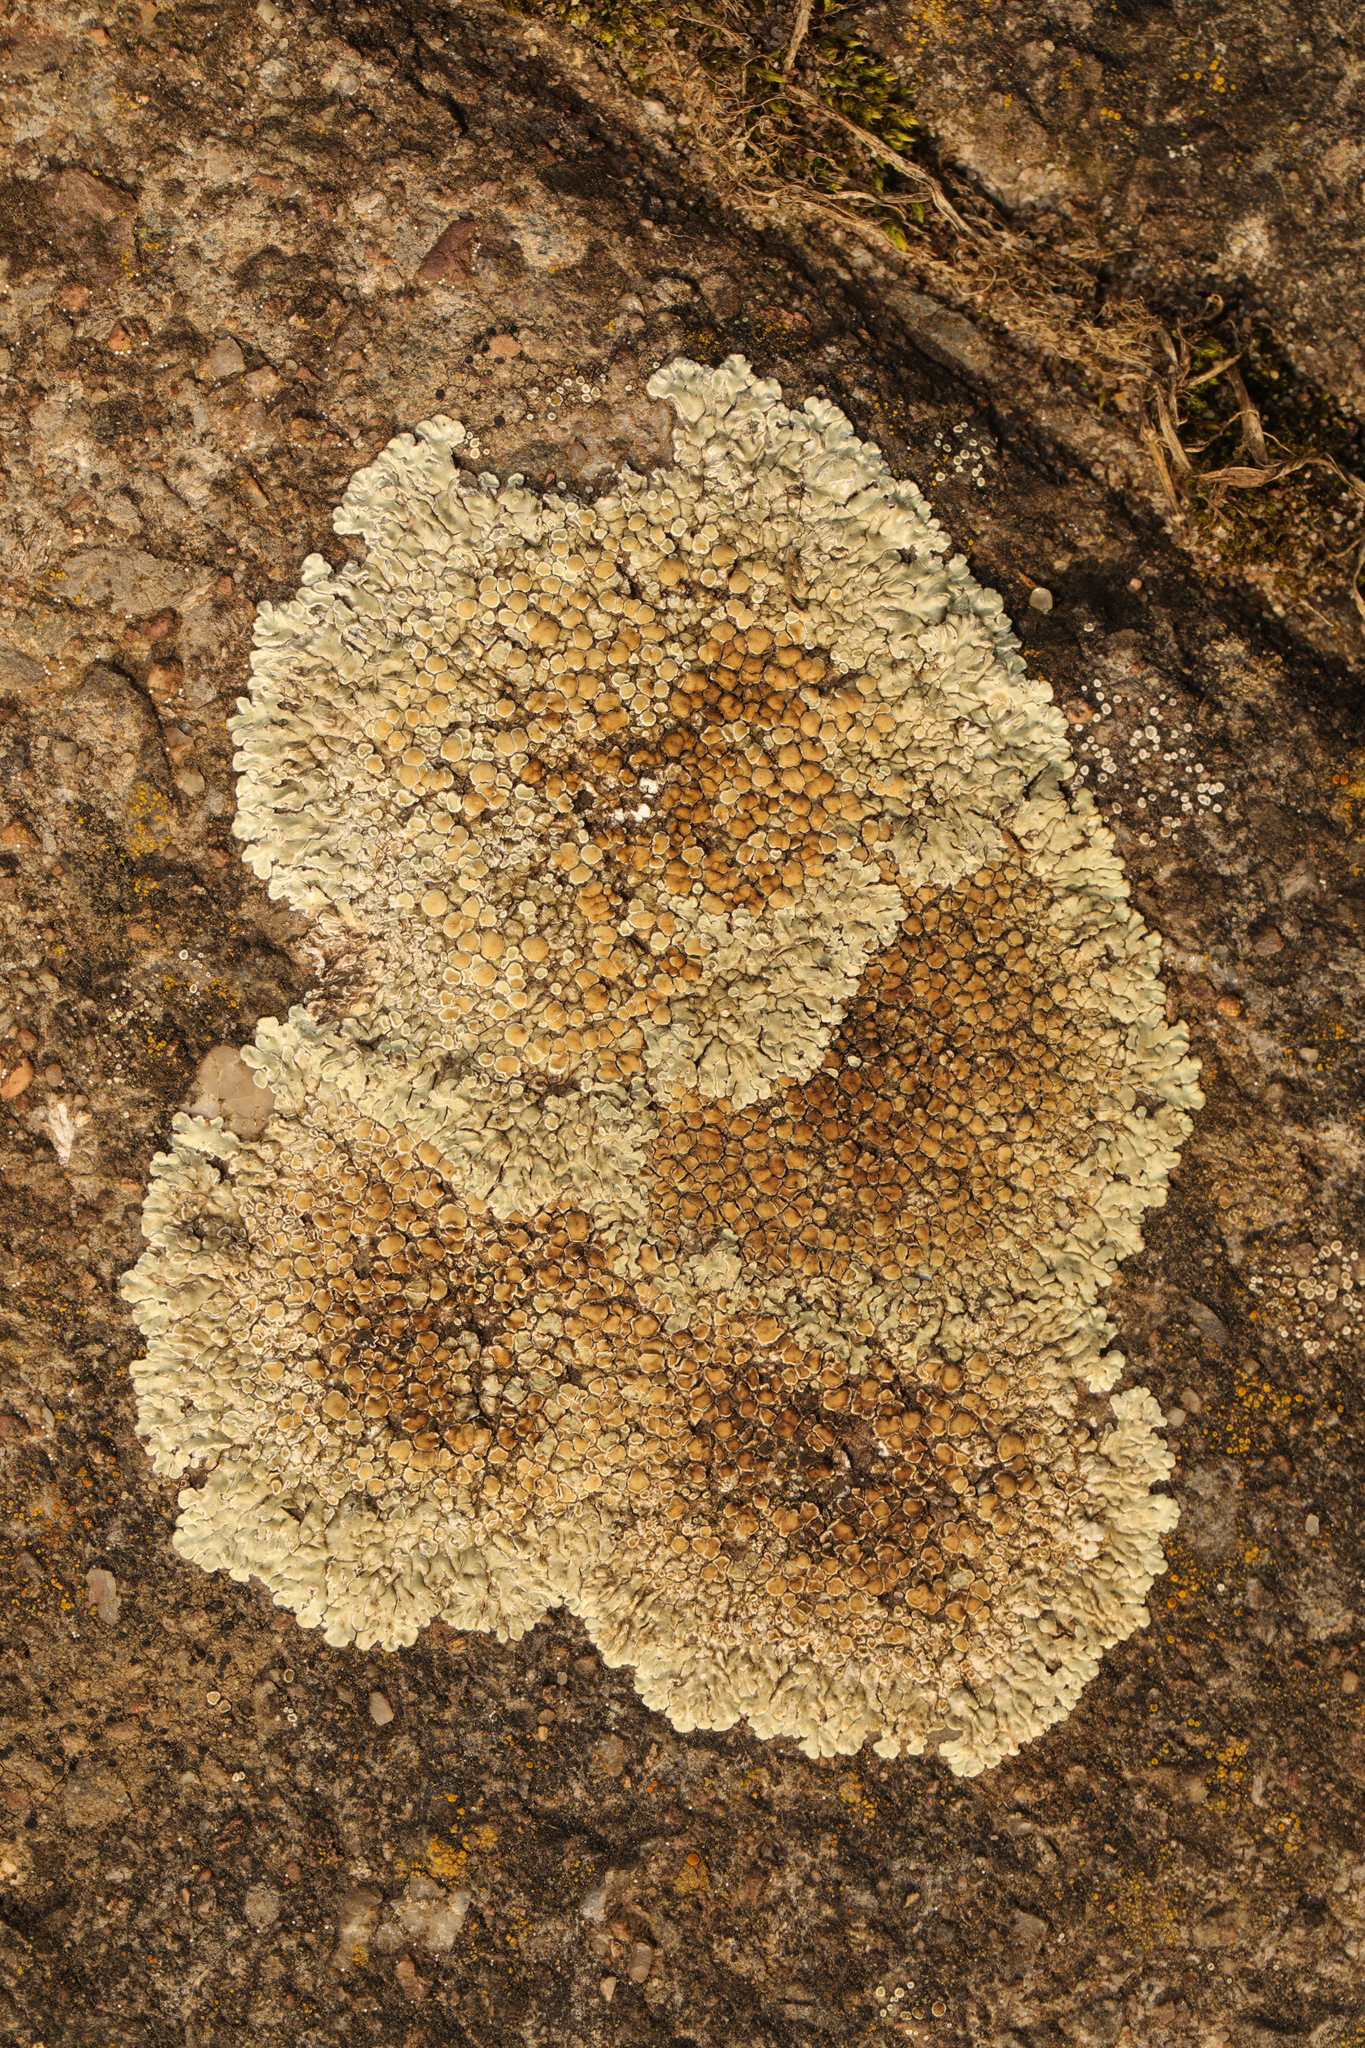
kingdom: Fungi
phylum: Ascomycota
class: Lecanoromycetes
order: Lecanorales
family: Lecanoraceae
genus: Protoparmeliopsis
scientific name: Protoparmeliopsis muralis
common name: Stonewall rim lichen
